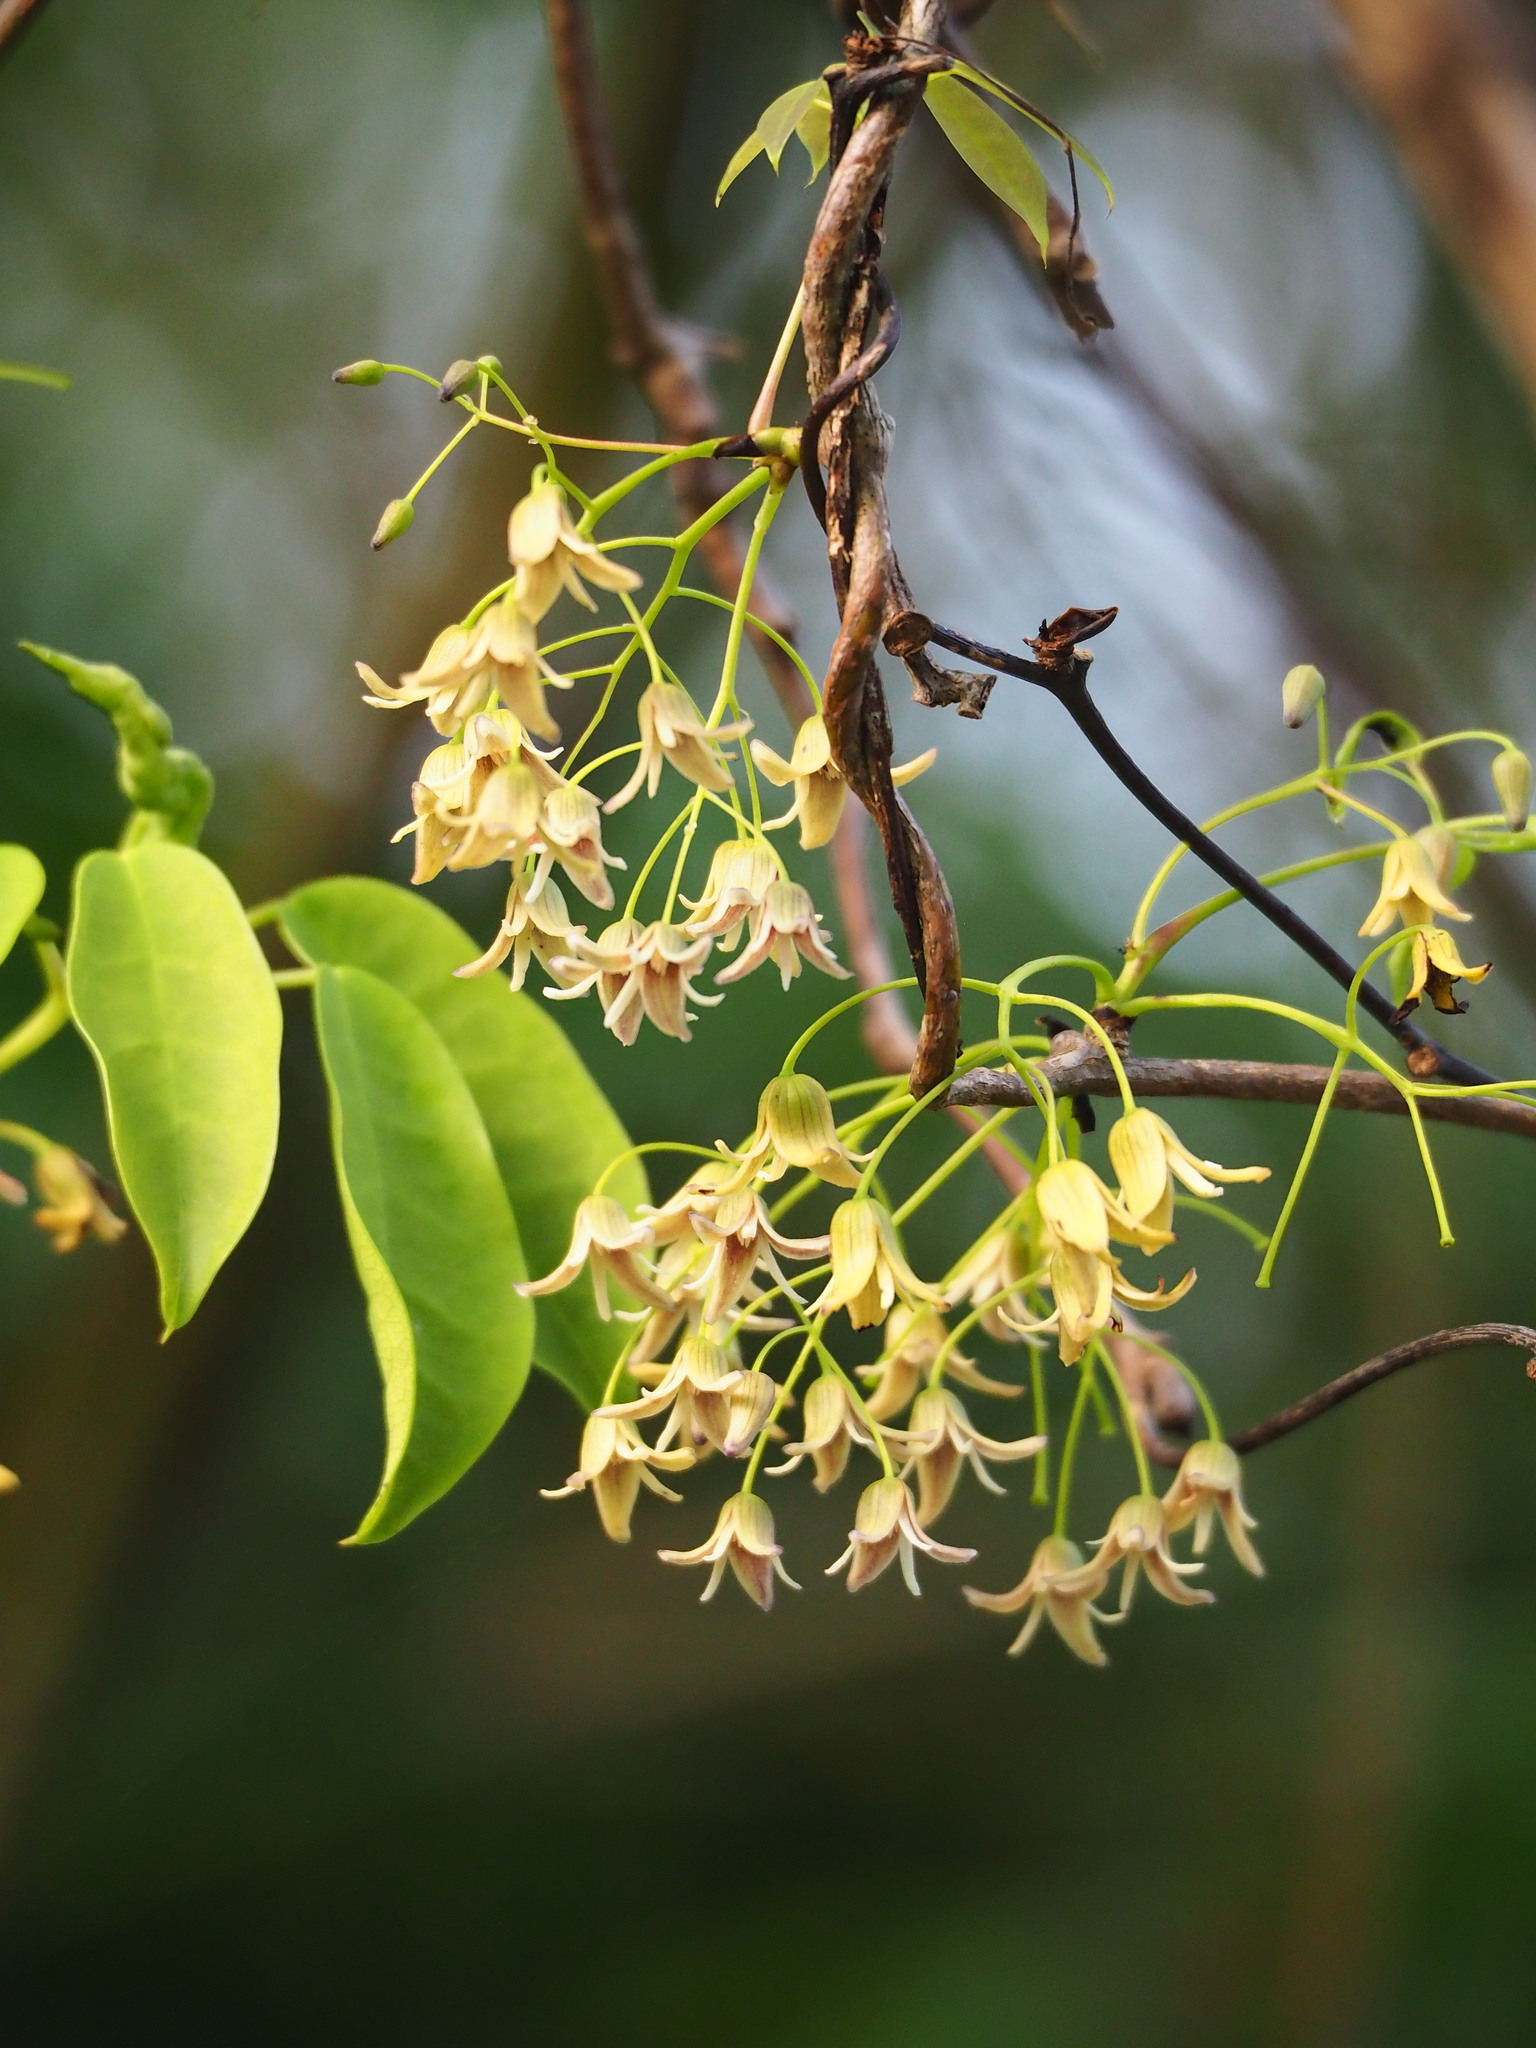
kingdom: Plantae
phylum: Tracheophyta
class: Magnoliopsida
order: Ranunculales
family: Lardizabalaceae
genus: Stauntonia
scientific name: Stauntonia obovatifoliola
